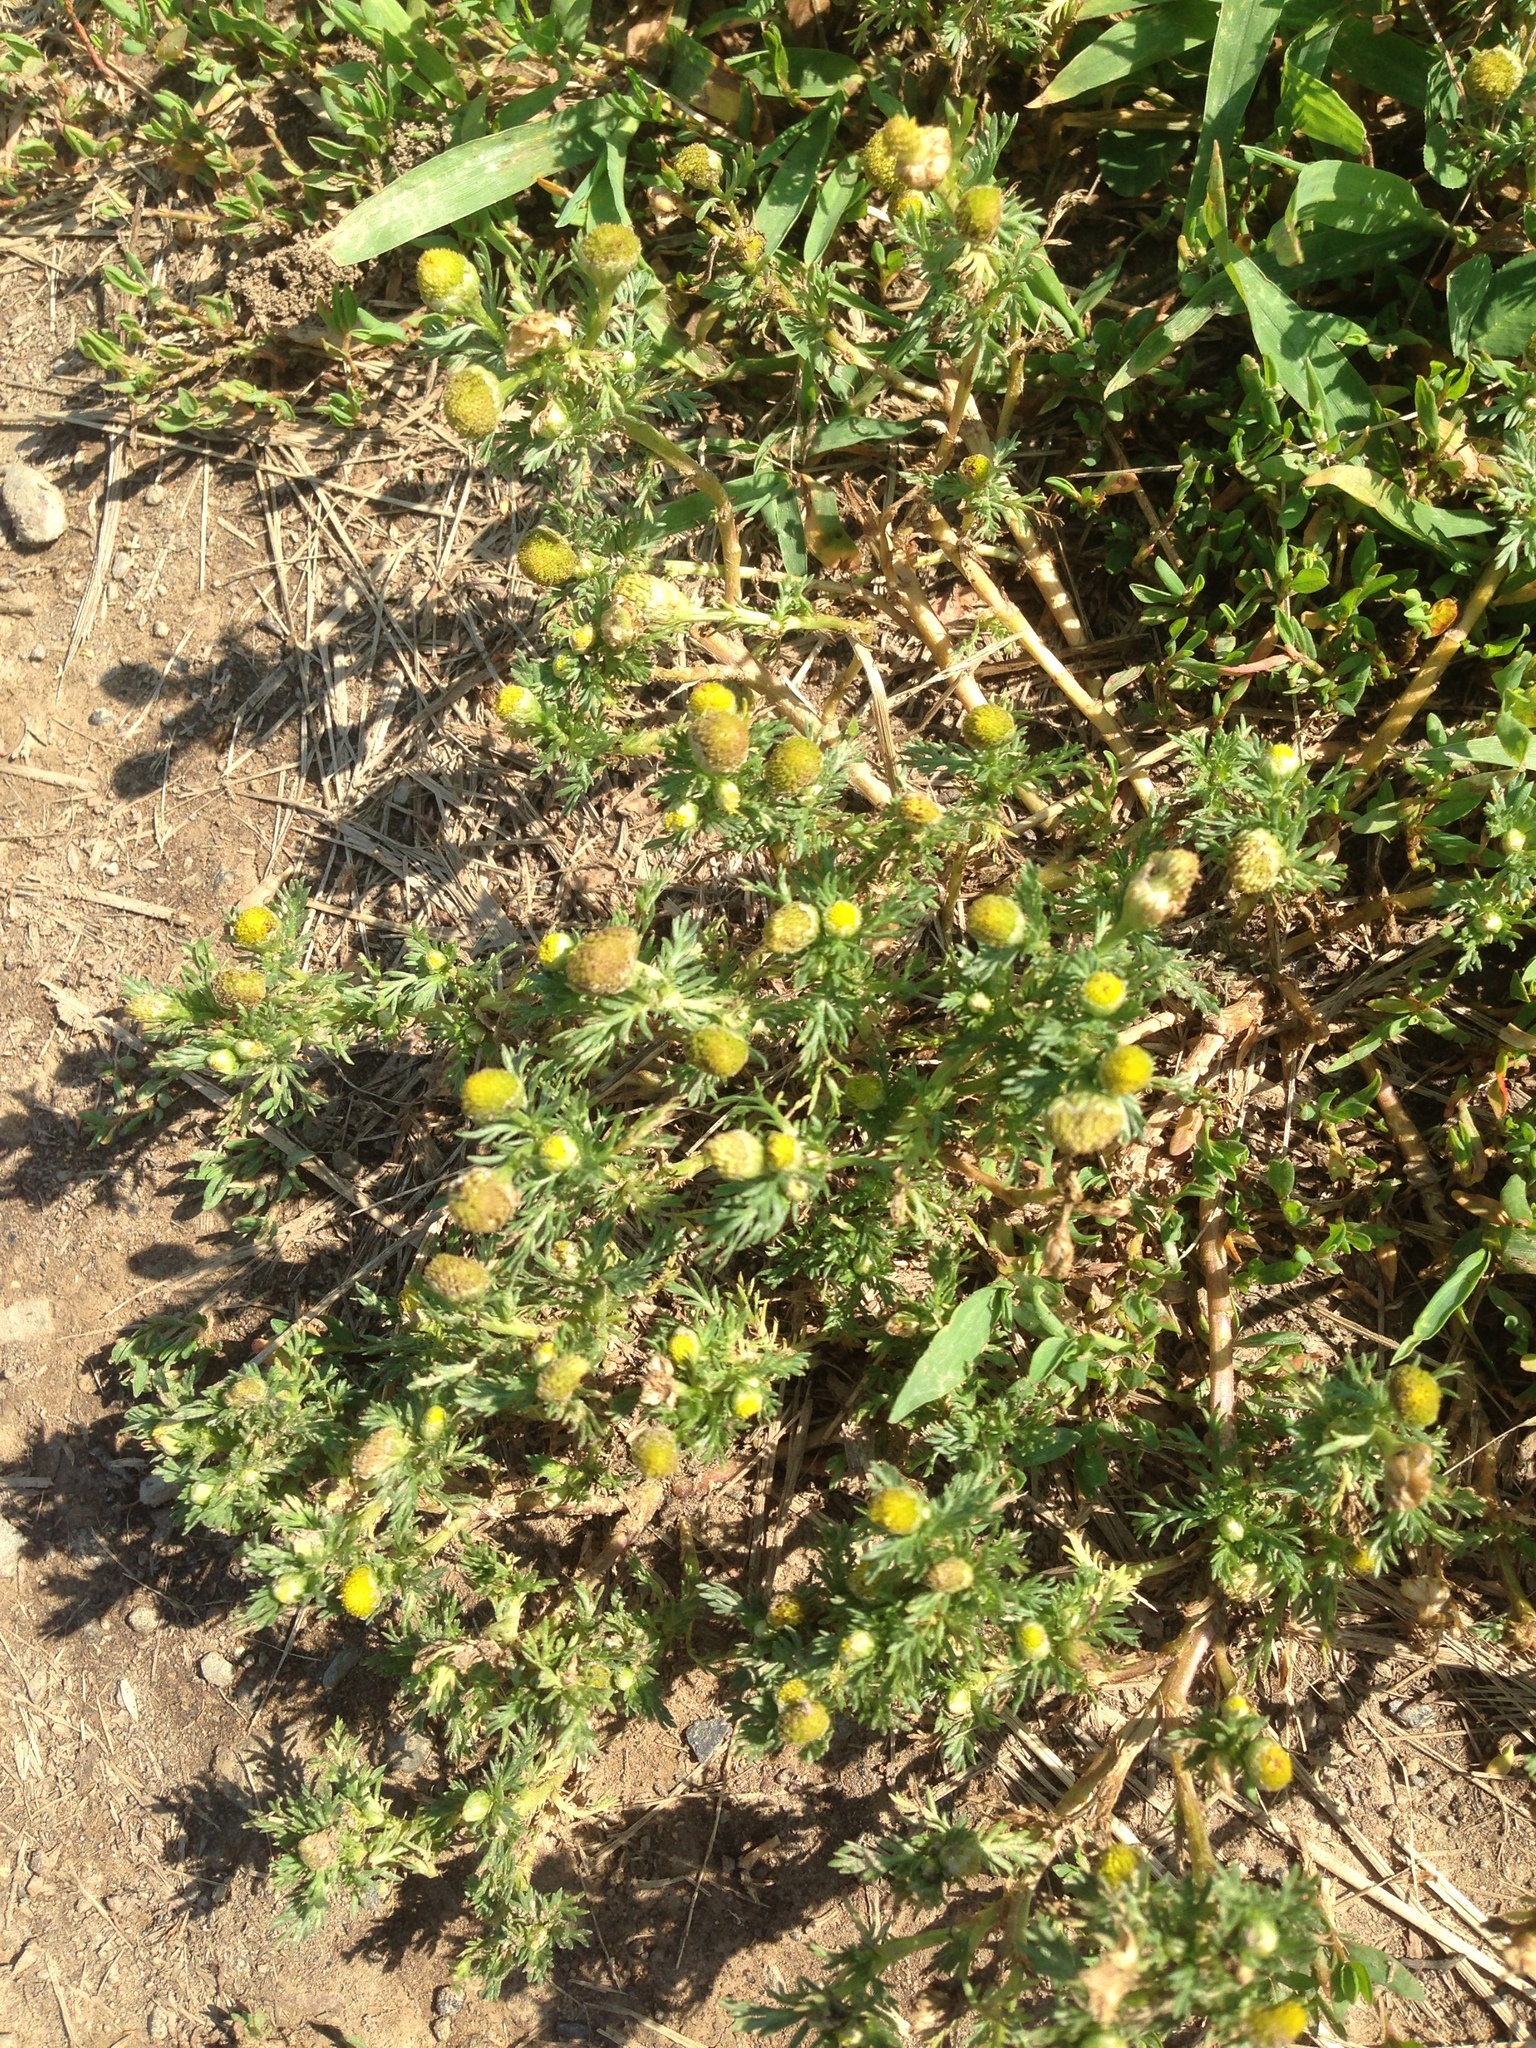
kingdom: Plantae
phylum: Tracheophyta
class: Magnoliopsida
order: Asterales
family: Asteraceae
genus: Matricaria
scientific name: Matricaria discoidea
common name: Disc mayweed
